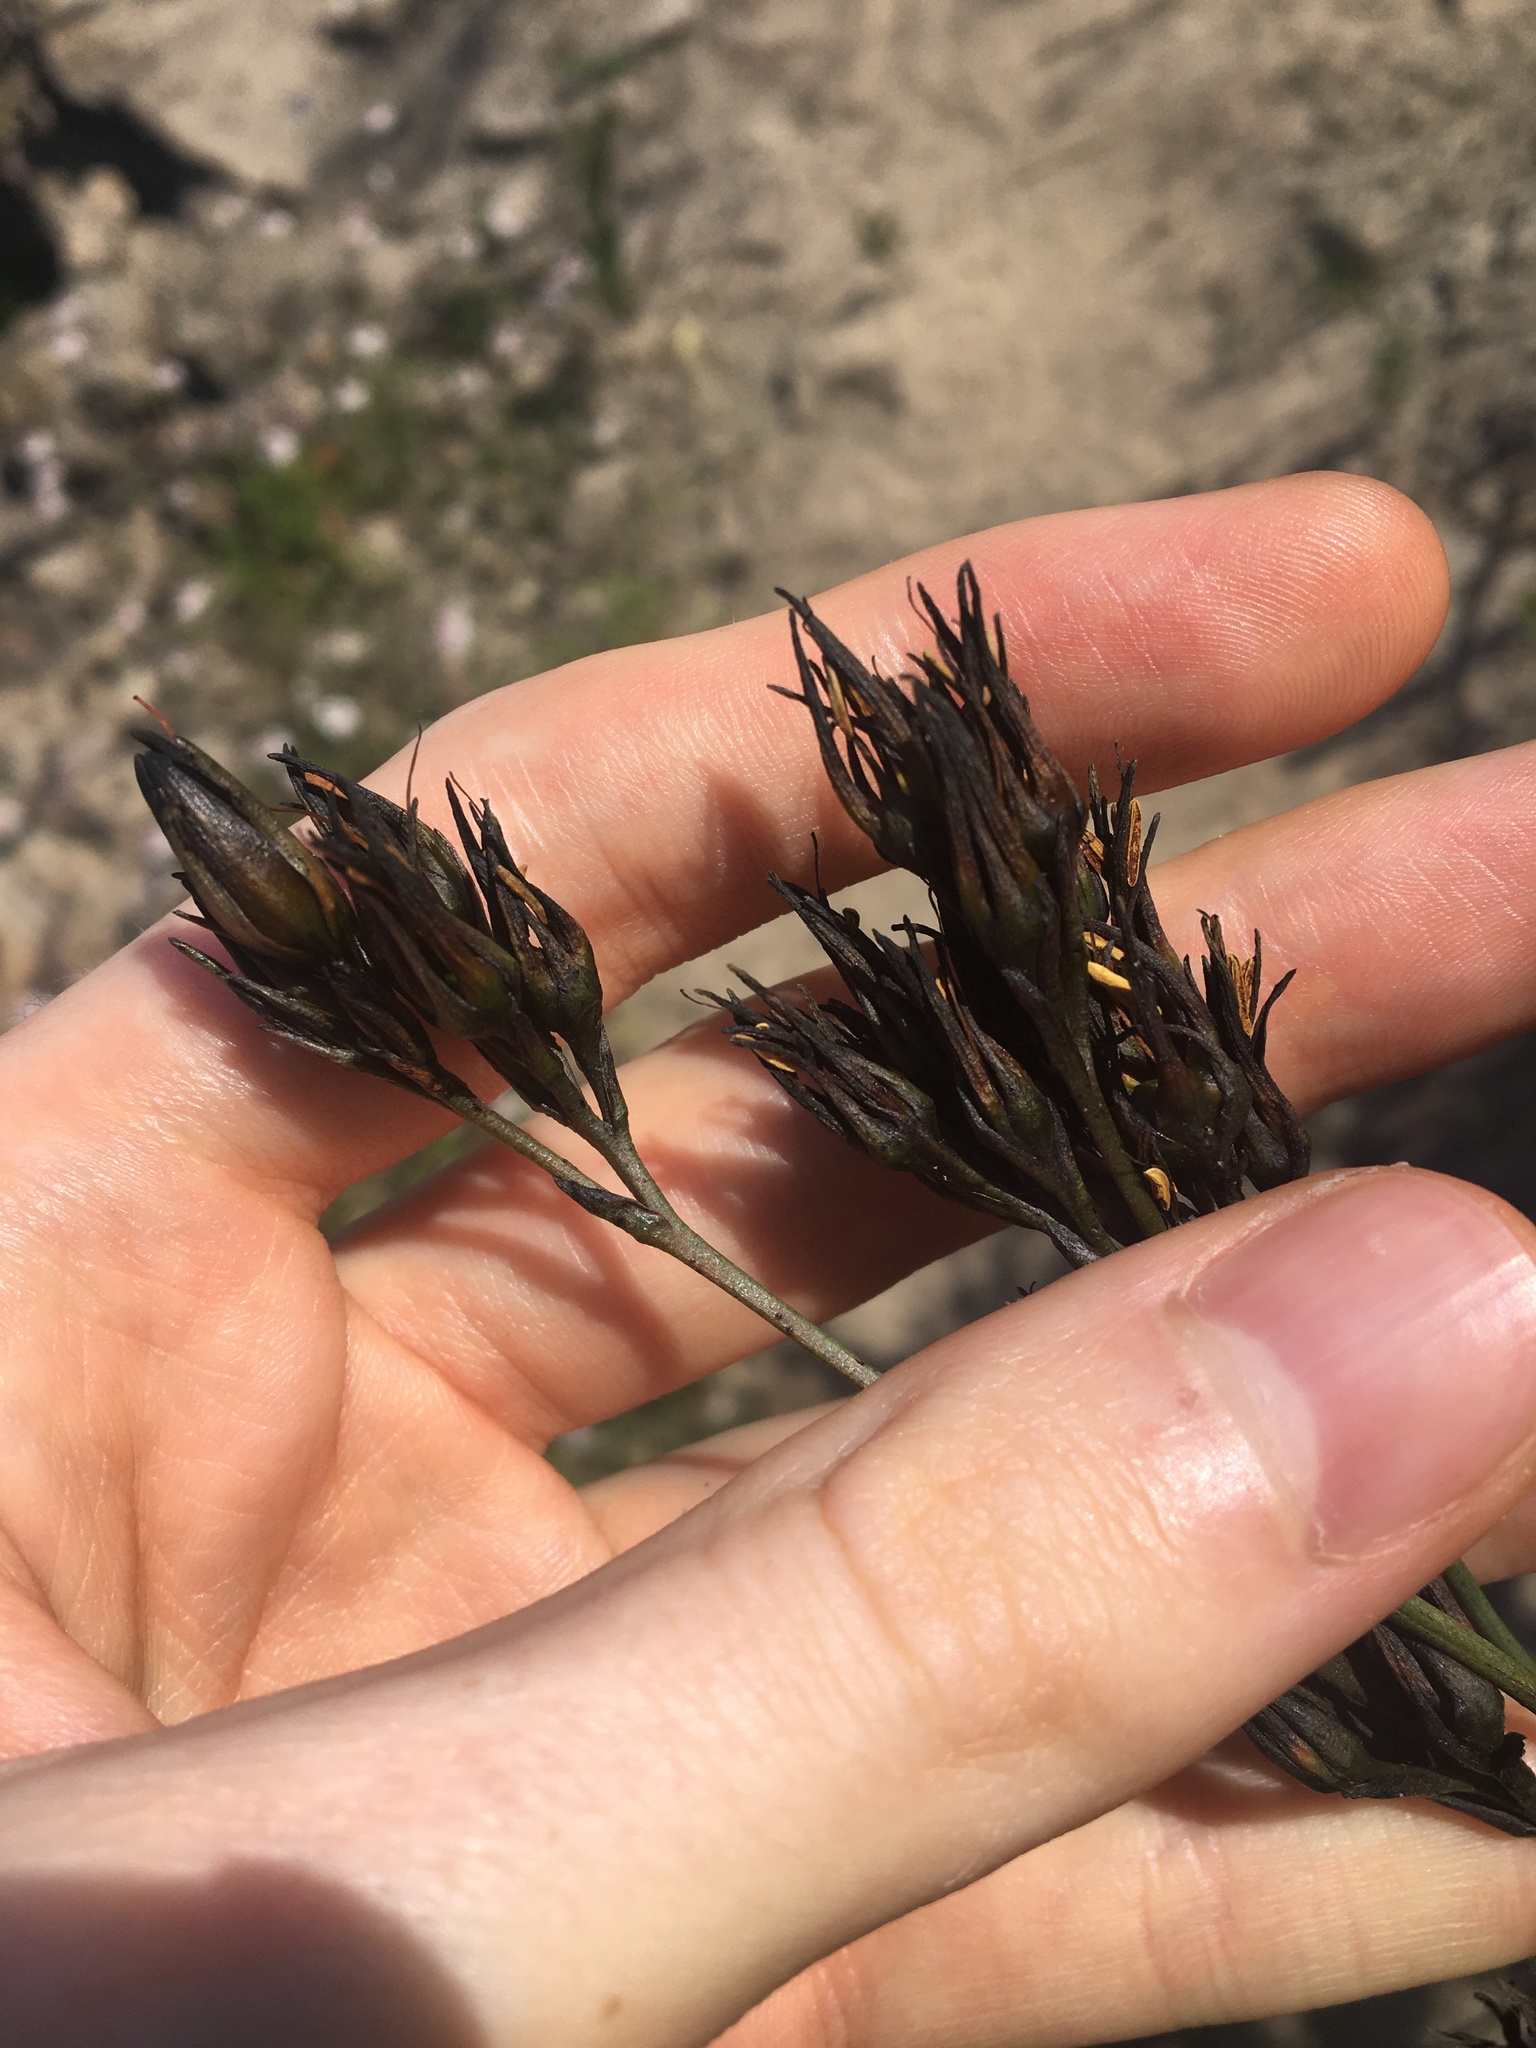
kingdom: Plantae
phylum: Tracheophyta
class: Liliopsida
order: Commelinales
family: Haemodoraceae
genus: Haemodorum
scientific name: Haemodorum planifolium
